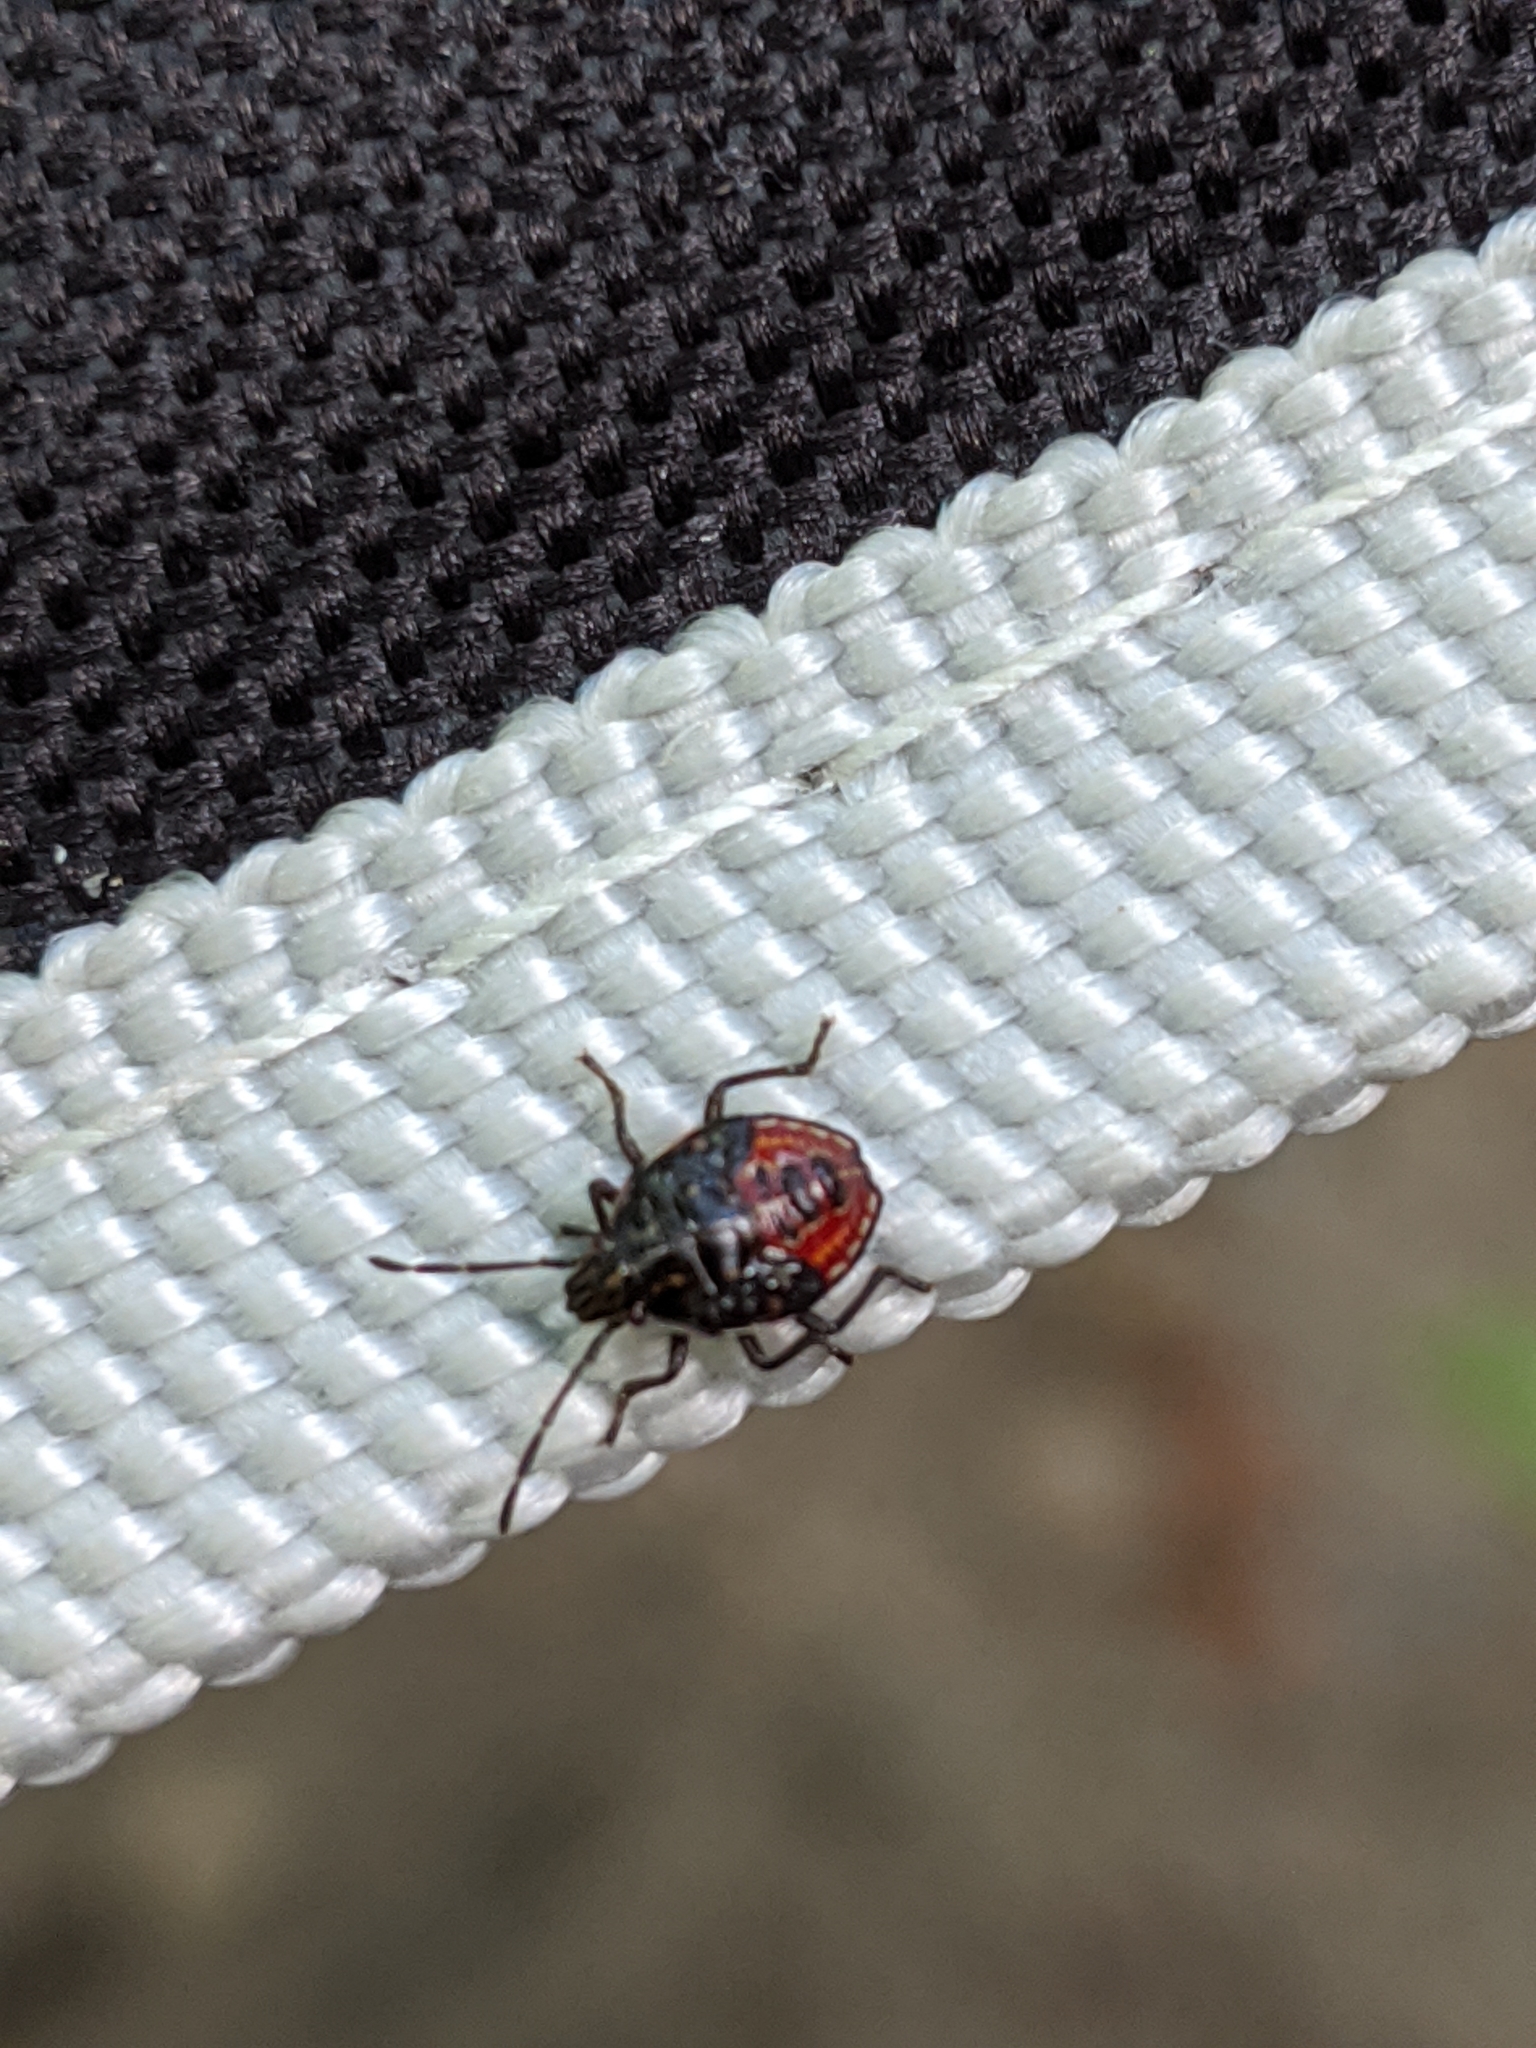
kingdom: Animalia
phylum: Arthropoda
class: Insecta
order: Hemiptera
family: Acanthosomatidae
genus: Elasmucha
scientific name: Elasmucha lateralis
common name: Shield bug
